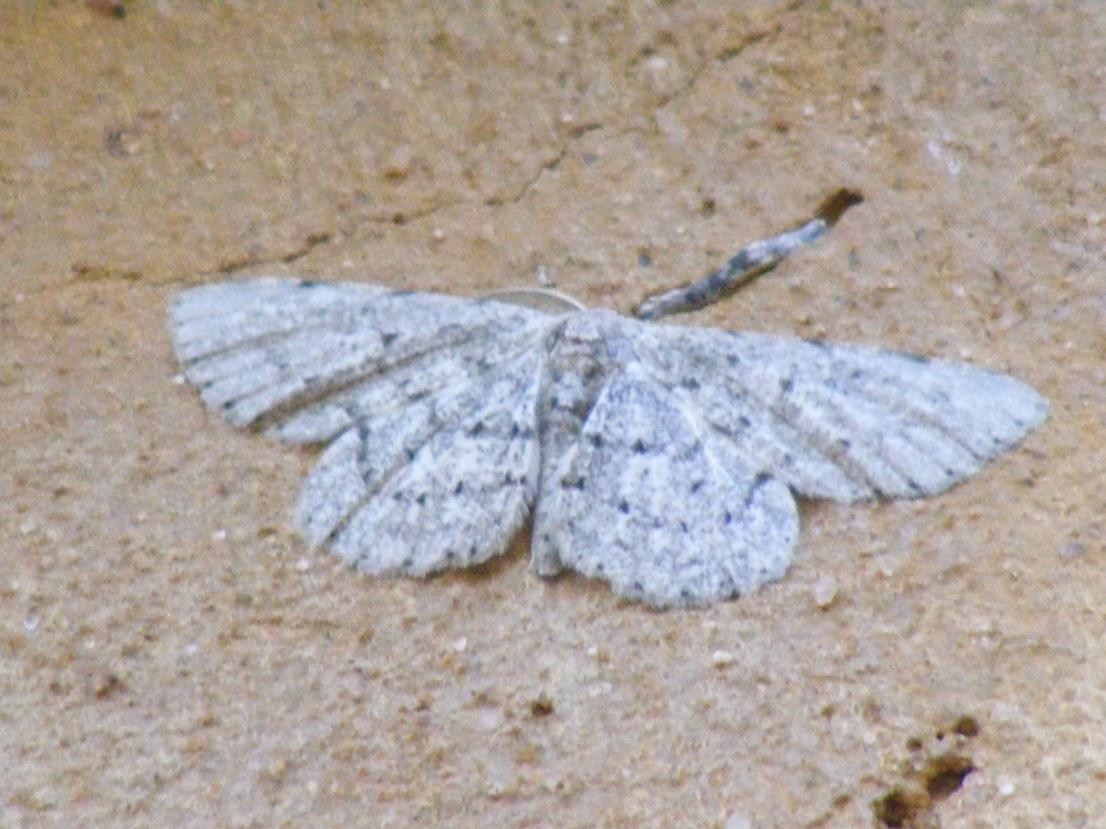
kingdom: Animalia
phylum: Arthropoda
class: Insecta
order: Lepidoptera
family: Geometridae
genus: Colocleora
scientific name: Colocleora proximaria
